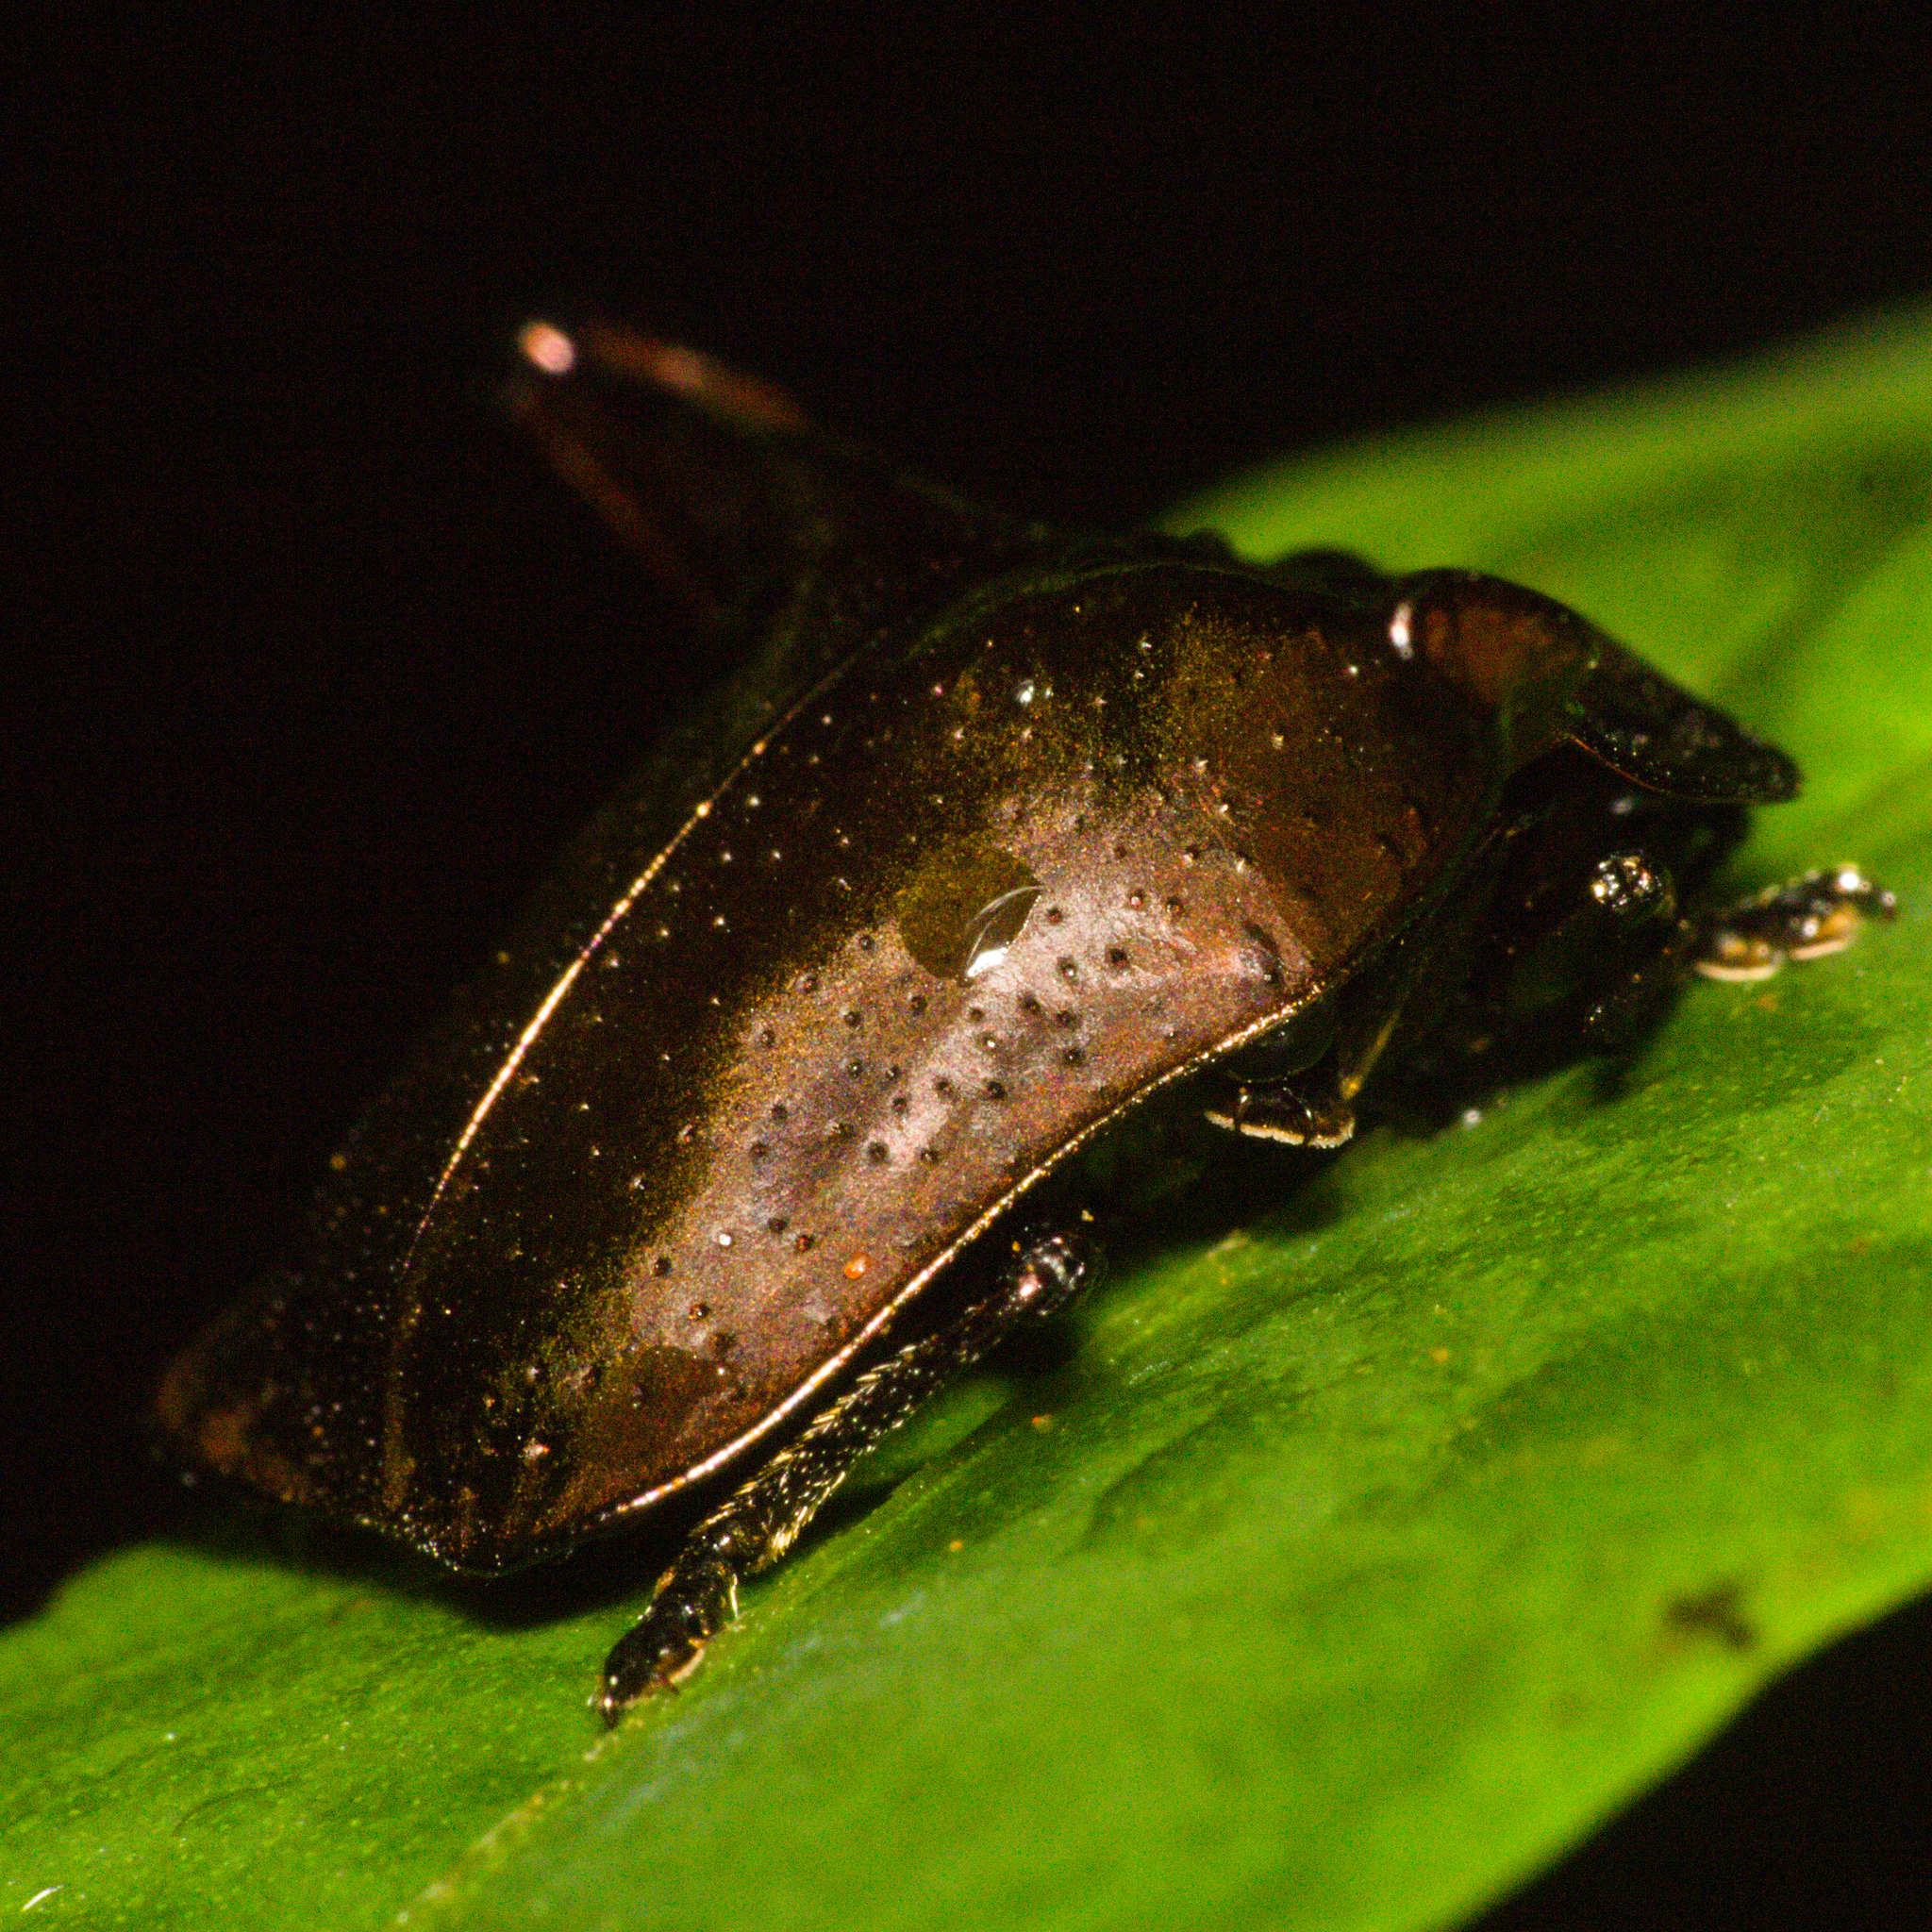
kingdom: Animalia
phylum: Arthropoda
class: Insecta
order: Coleoptera
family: Chrysomelidae
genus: Omocerus
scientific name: Omocerus truncatus
